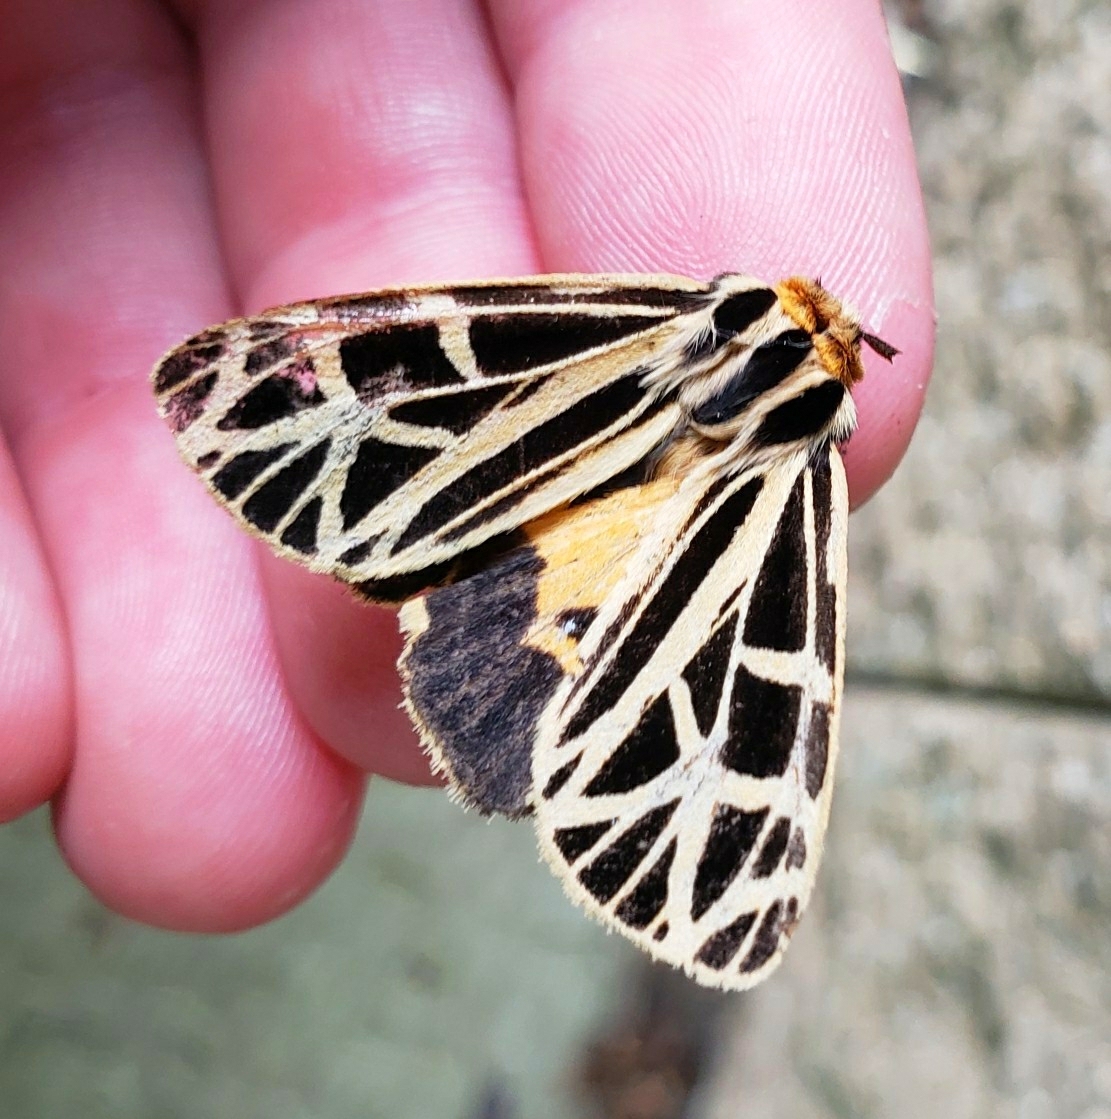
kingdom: Animalia
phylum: Arthropoda
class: Insecta
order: Lepidoptera
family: Erebidae
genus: Apantesis
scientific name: Apantesis
